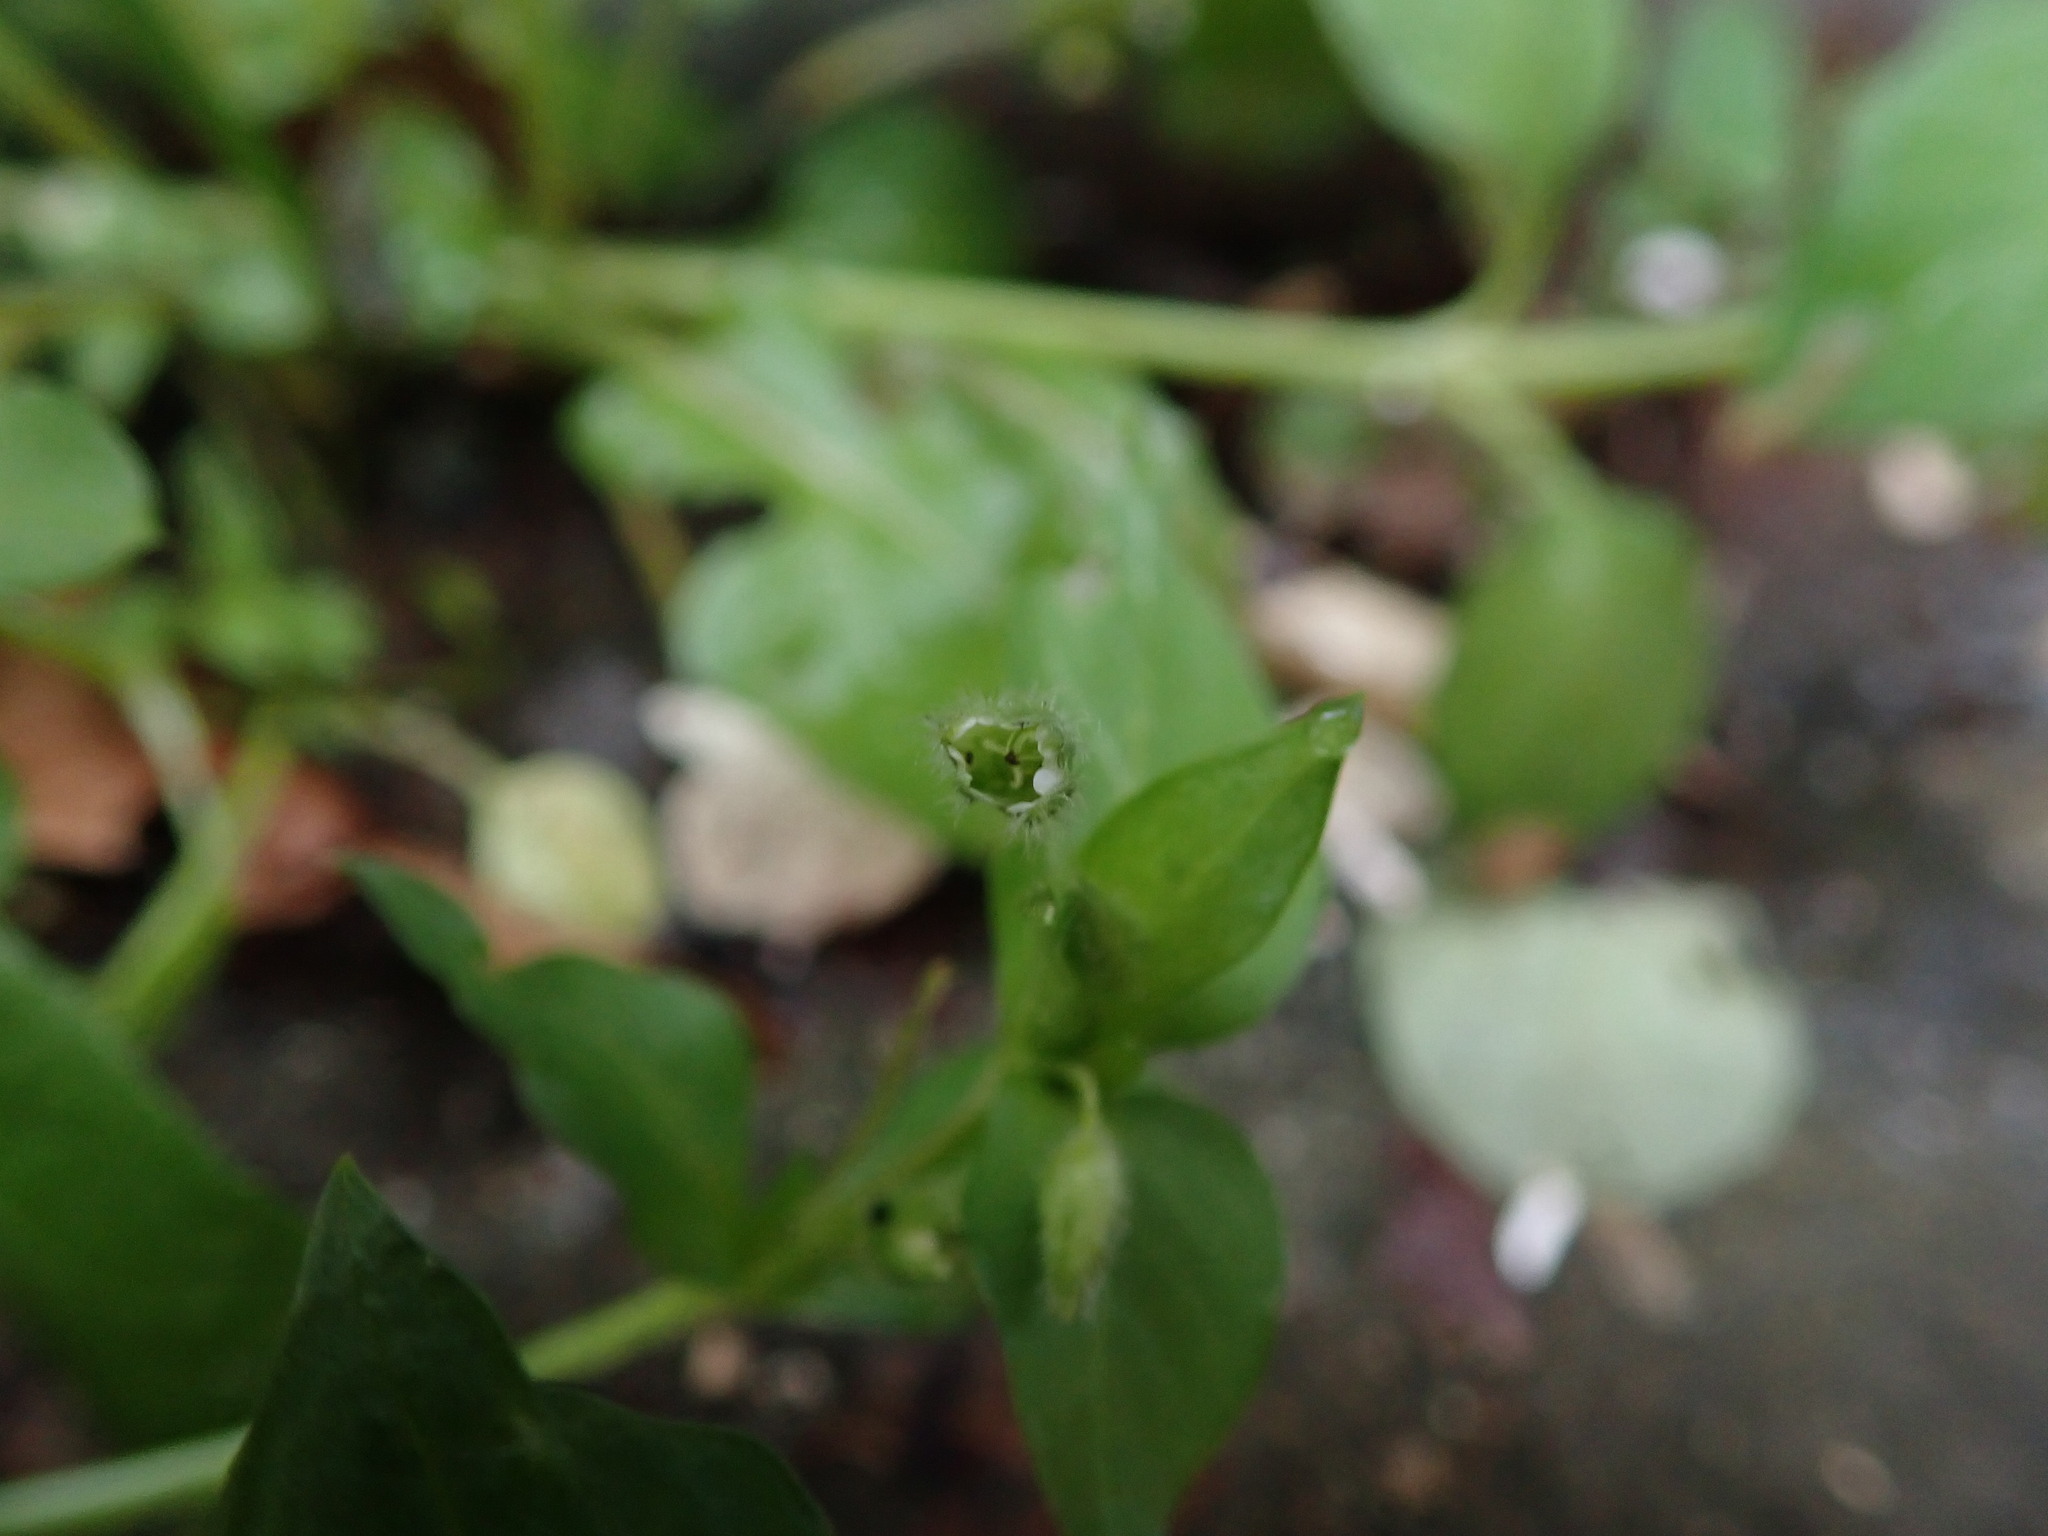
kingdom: Plantae
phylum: Tracheophyta
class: Magnoliopsida
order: Caryophyllales
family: Caryophyllaceae
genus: Stellaria
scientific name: Stellaria media
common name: Common chickweed
